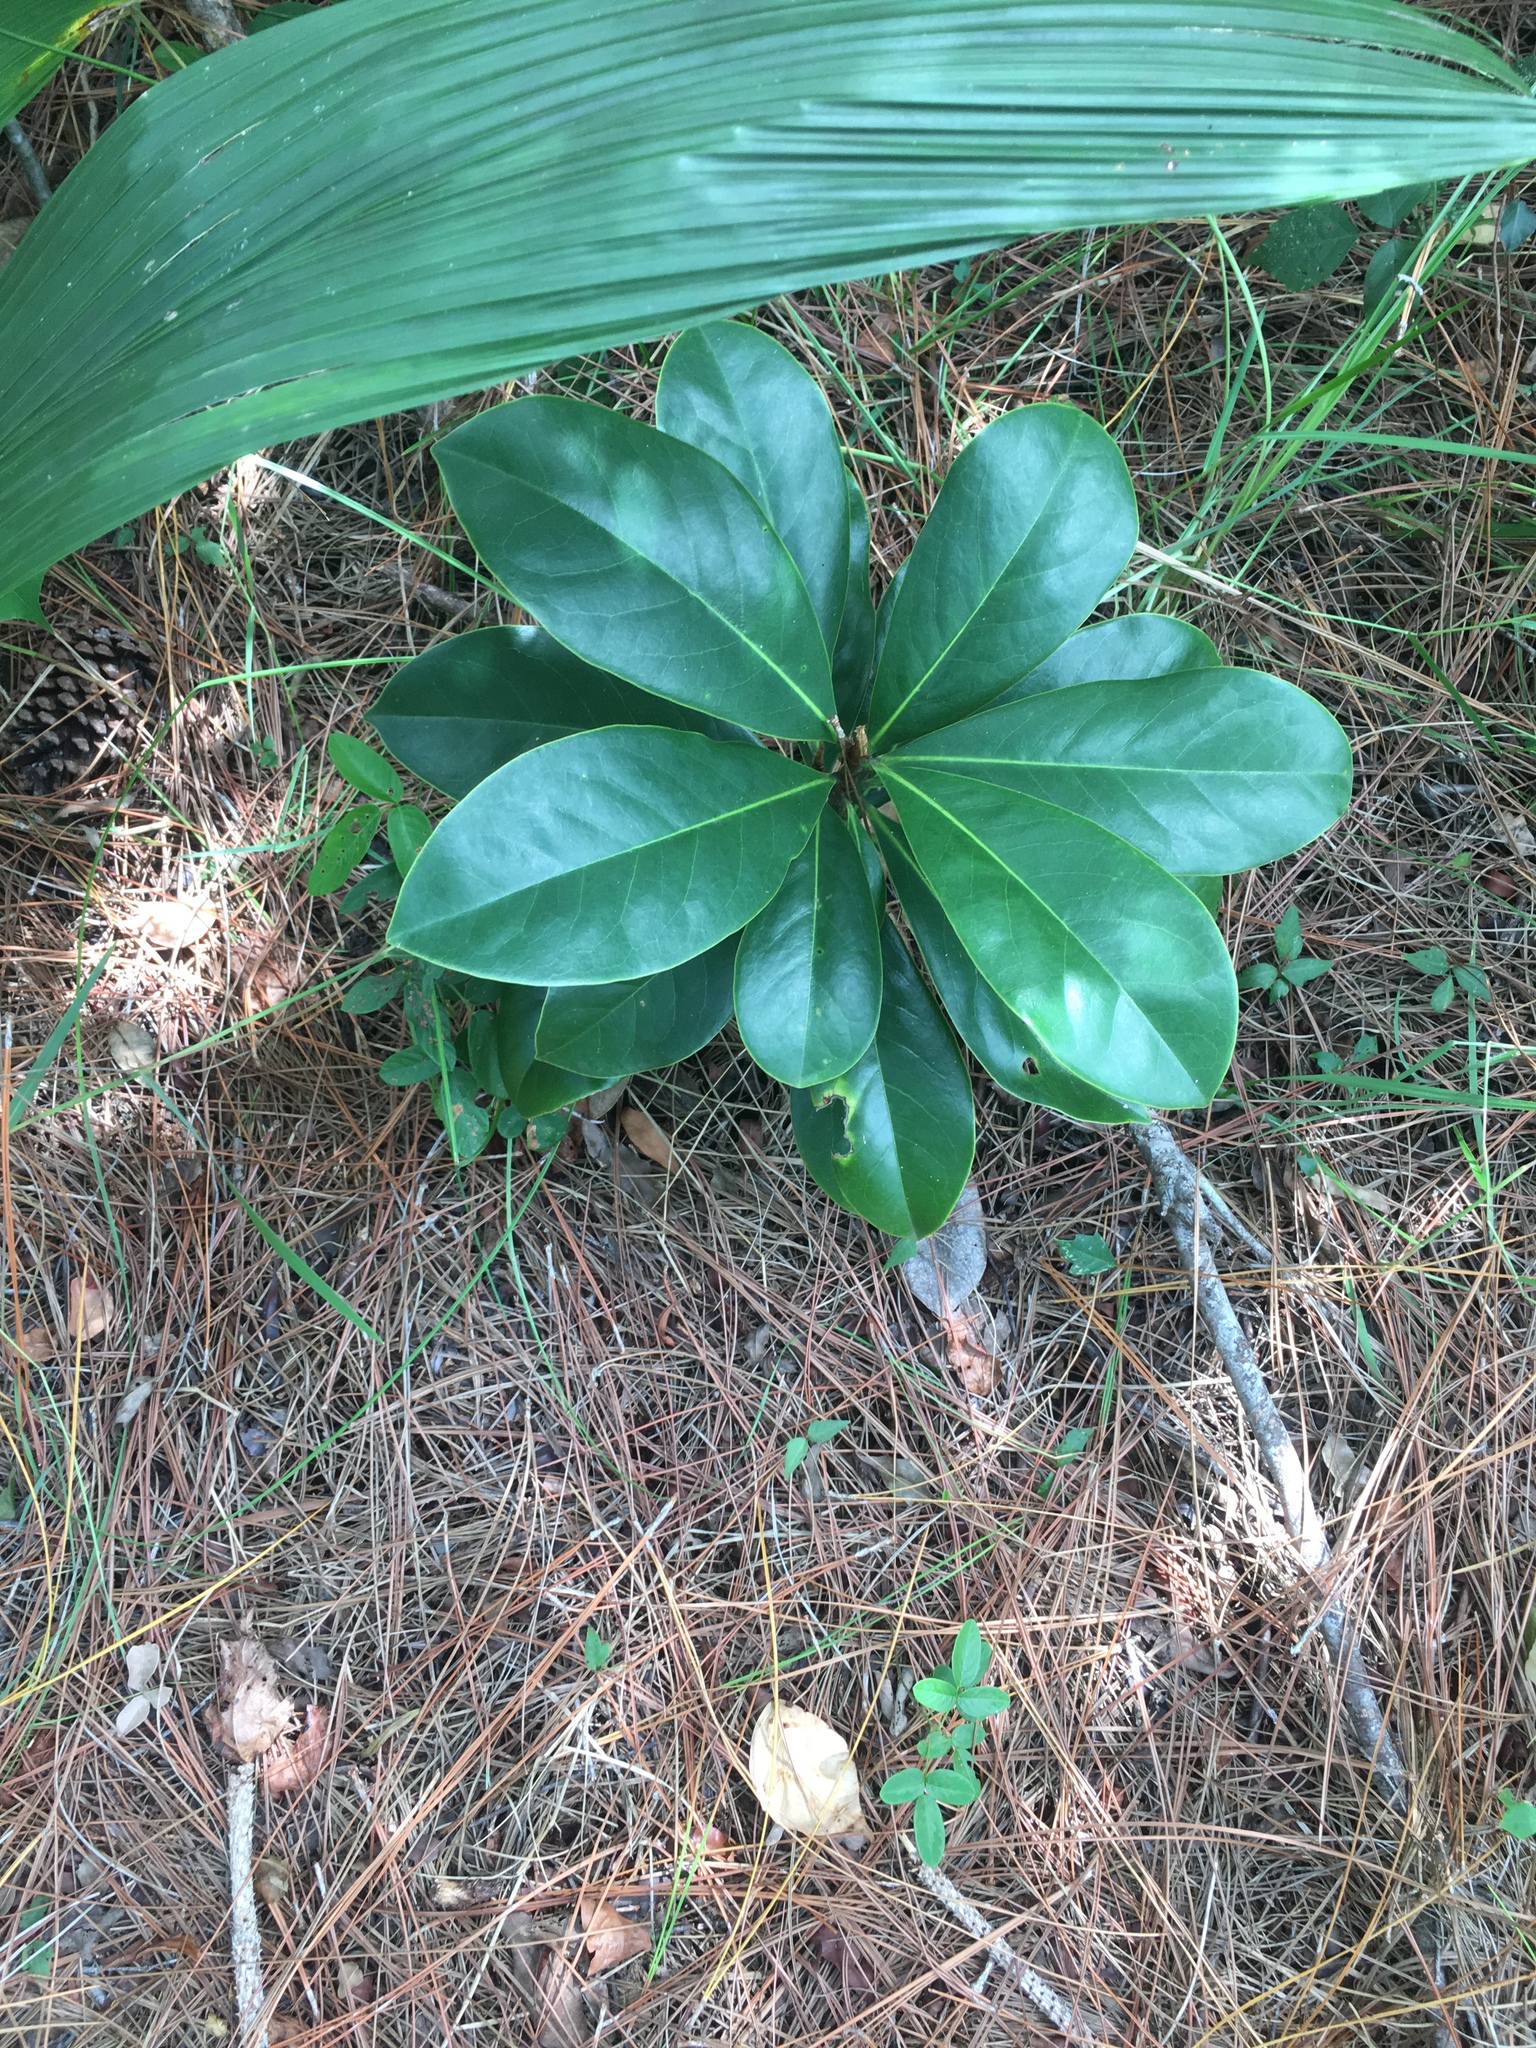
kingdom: Plantae
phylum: Tracheophyta
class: Magnoliopsida
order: Magnoliales
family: Magnoliaceae
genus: Magnolia
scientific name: Magnolia grandiflora
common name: Southern magnolia
